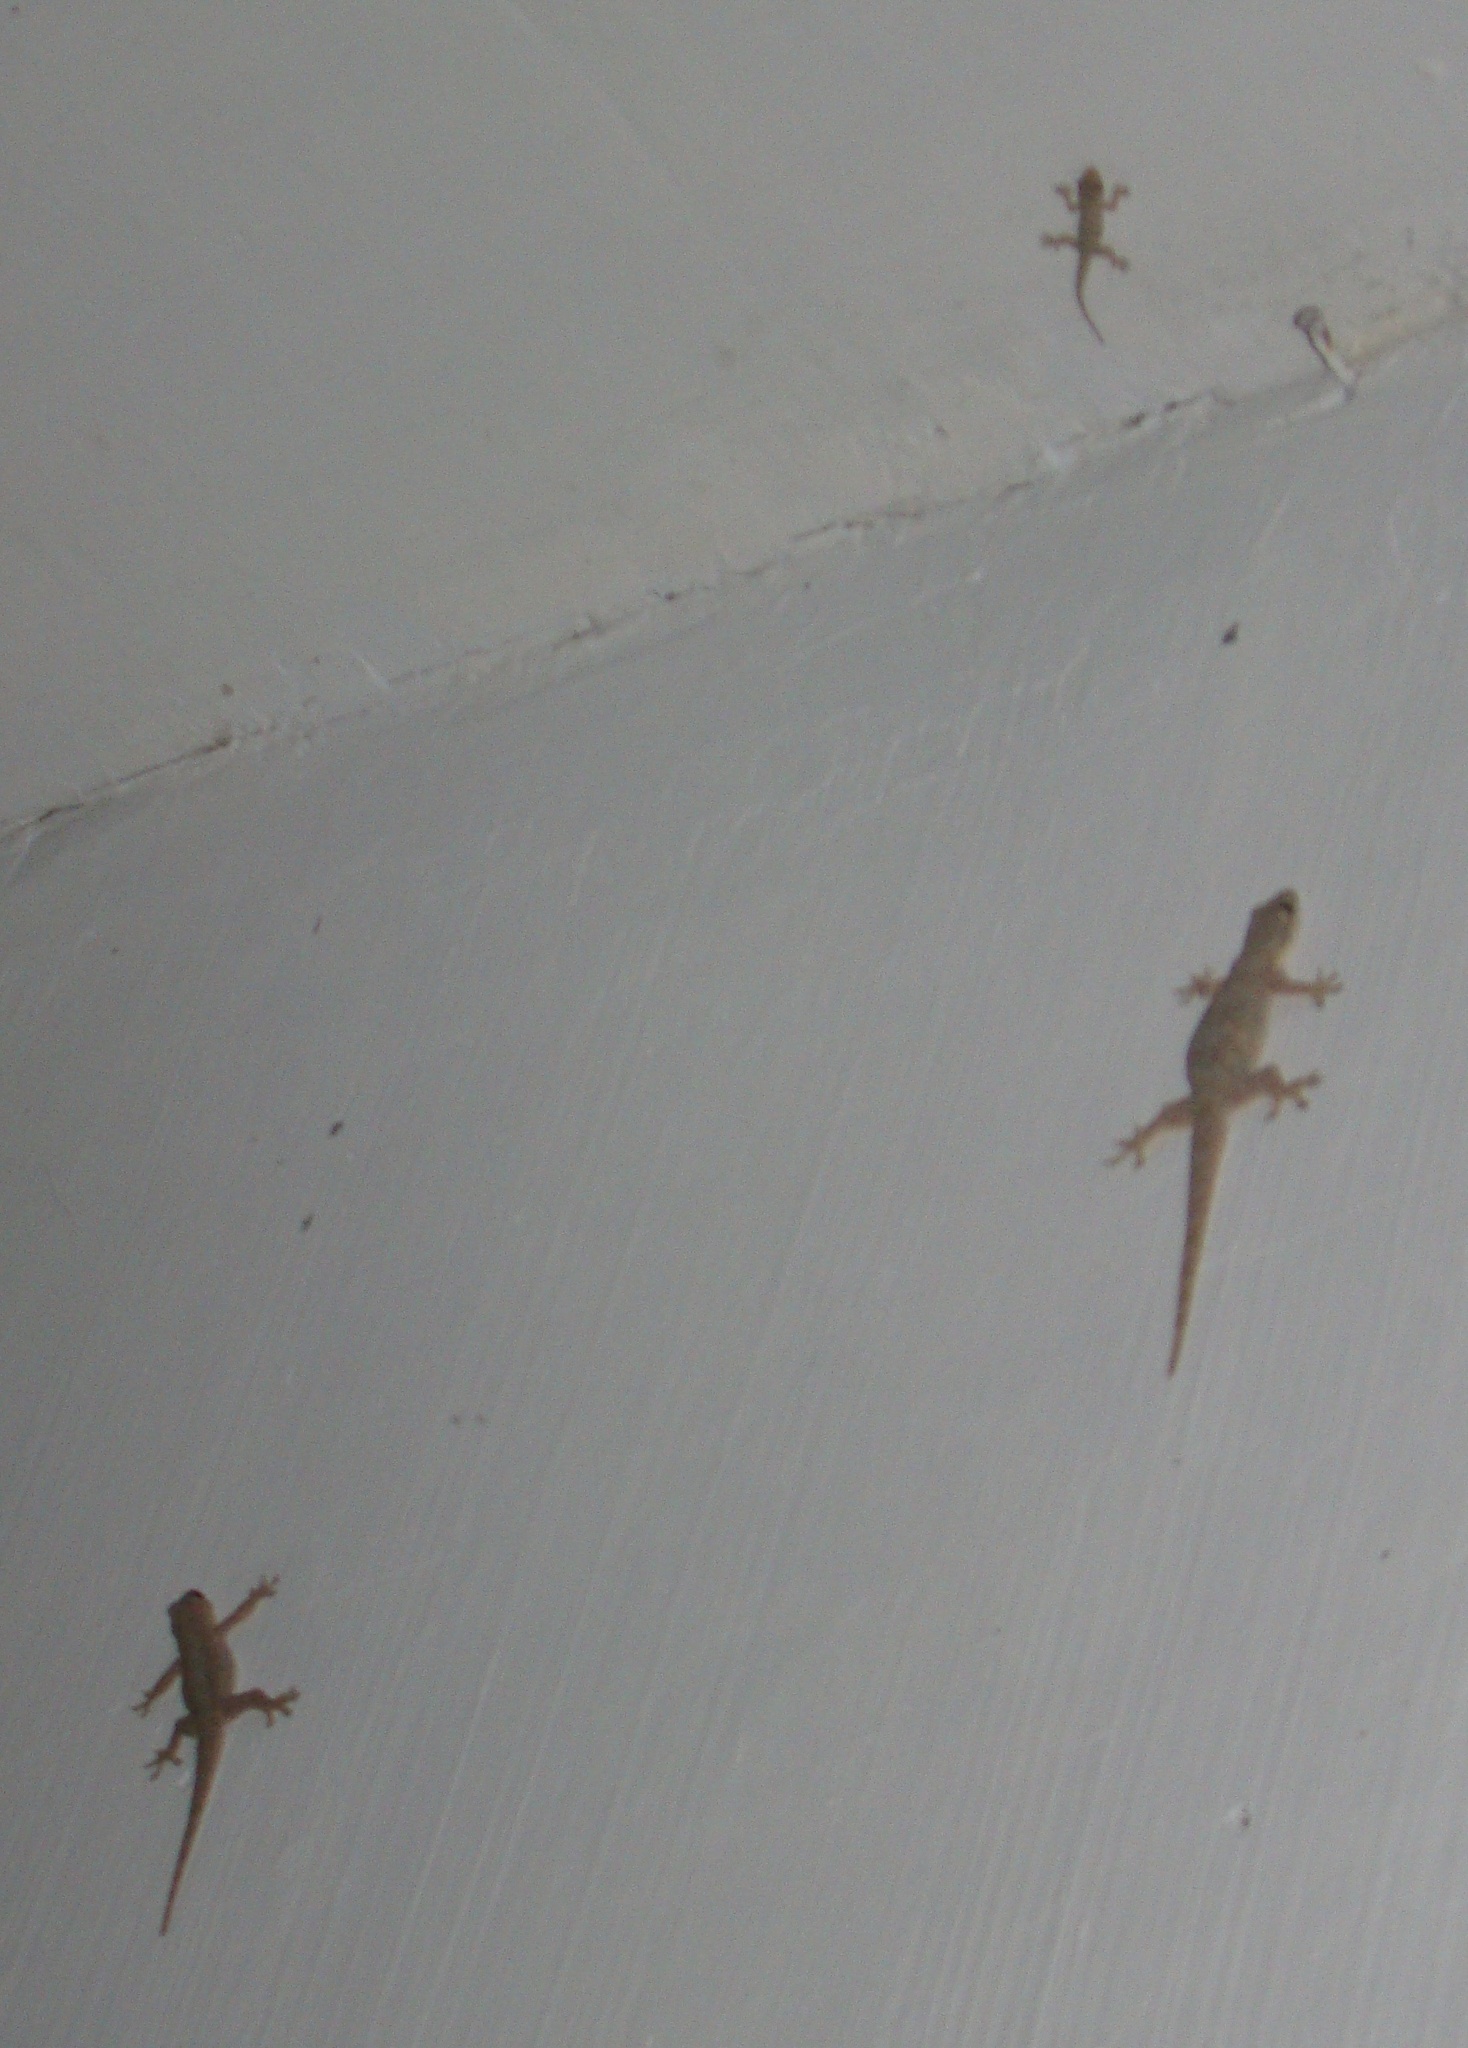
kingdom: Animalia
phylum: Chordata
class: Squamata
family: Gekkonidae
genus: Hemidactylus
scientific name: Hemidactylus platyurus
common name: Flat-tailed house gecko
